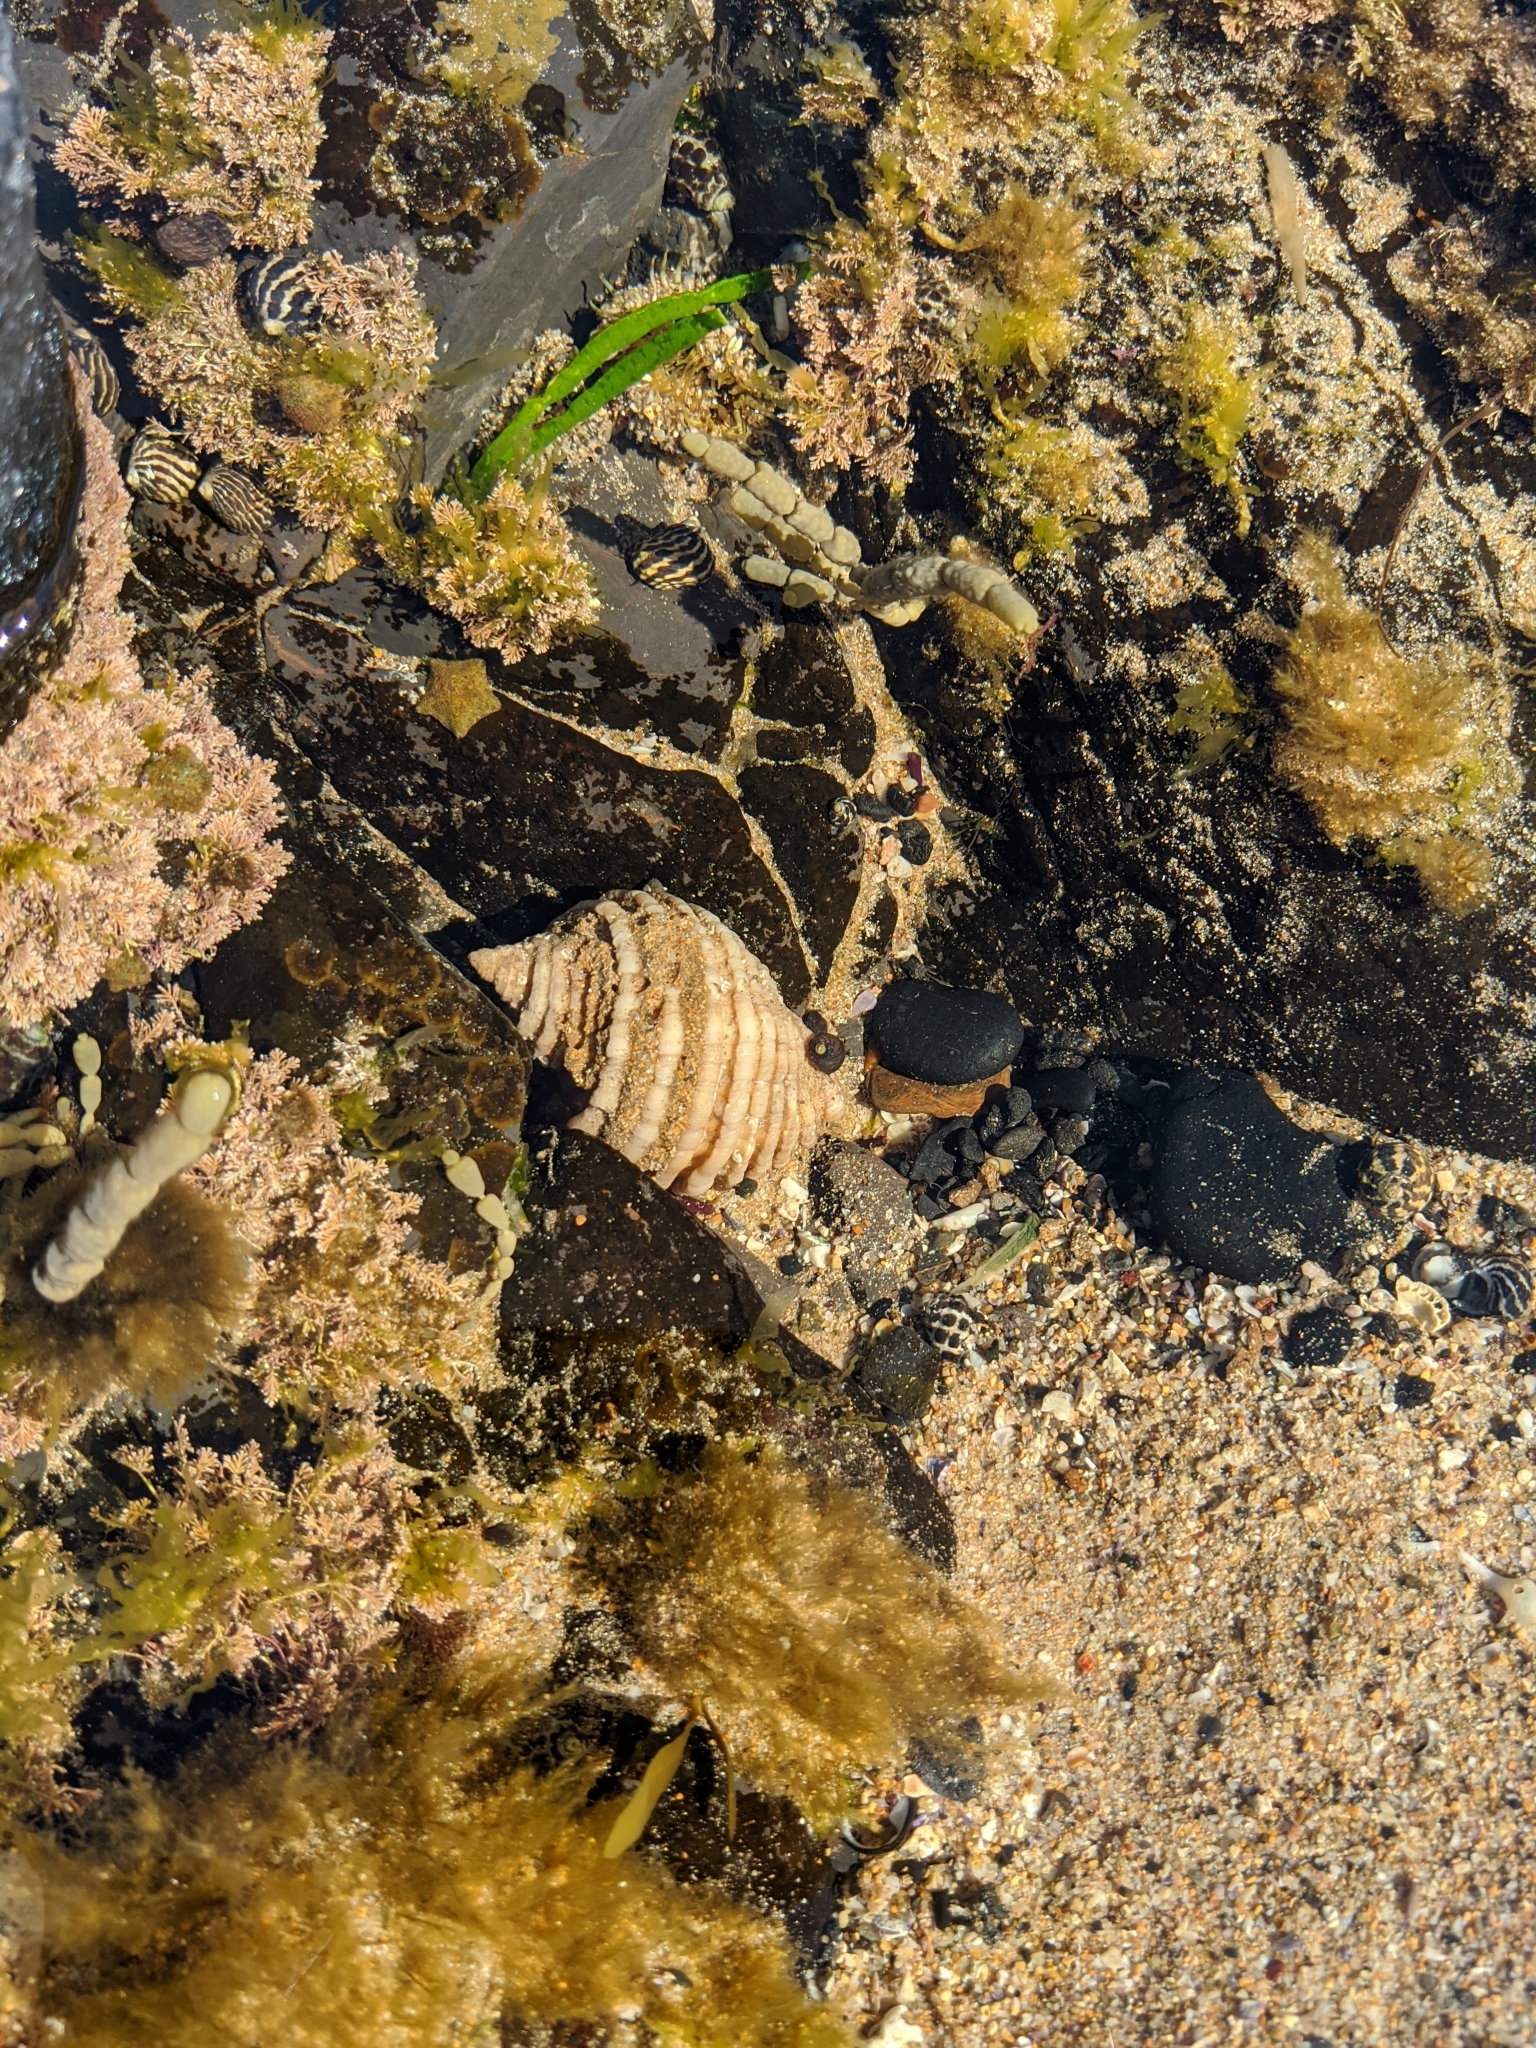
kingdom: Animalia
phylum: Mollusca
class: Gastropoda
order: Neogastropoda
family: Muricidae
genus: Dicathais
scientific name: Dicathais orbita
